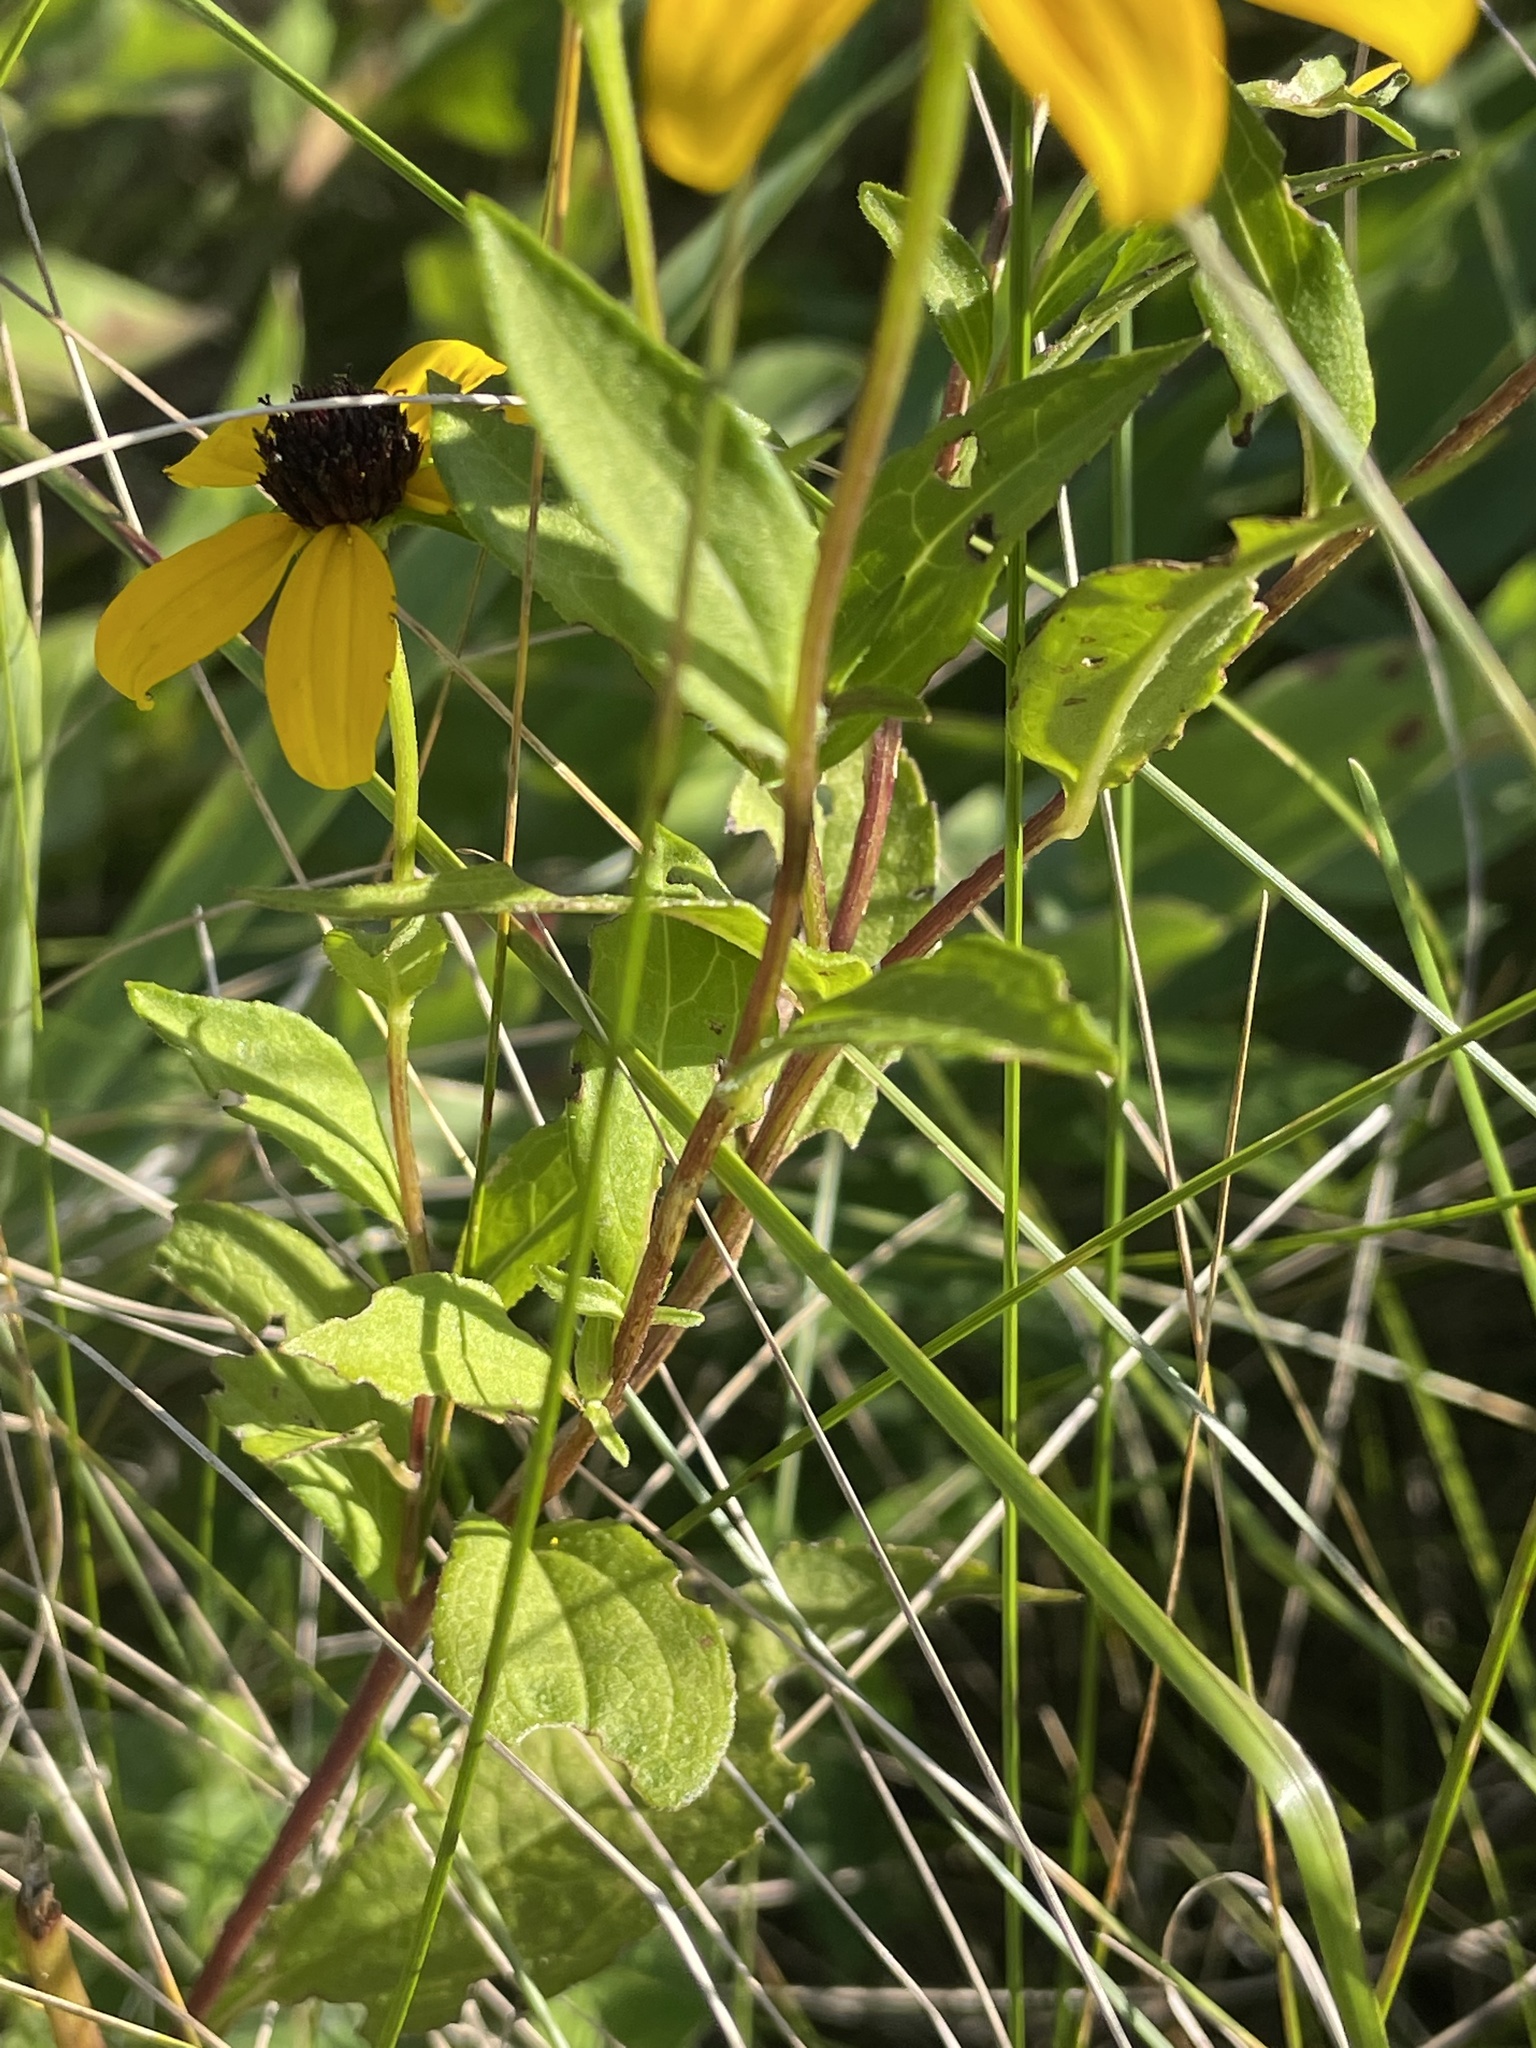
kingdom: Plantae
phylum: Tracheophyta
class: Magnoliopsida
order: Asterales
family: Asteraceae
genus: Rudbeckia
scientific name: Rudbeckia triloba
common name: Thin-leaved coneflower
